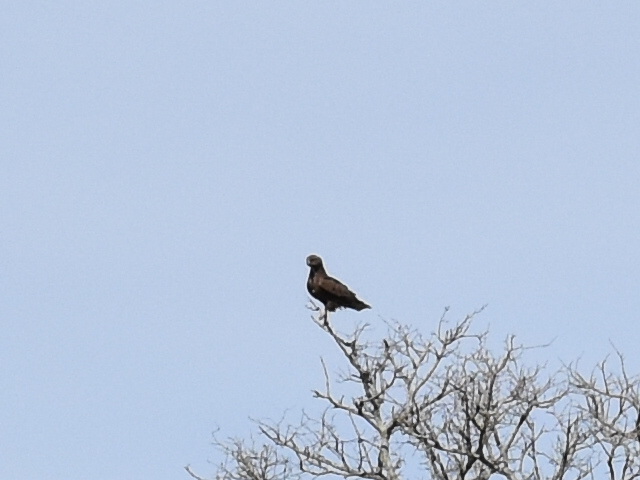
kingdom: Animalia
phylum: Chordata
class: Aves
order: Accipitriformes
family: Accipitridae
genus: Circaetus
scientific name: Circaetus cinereus
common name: Brown snake eagle
